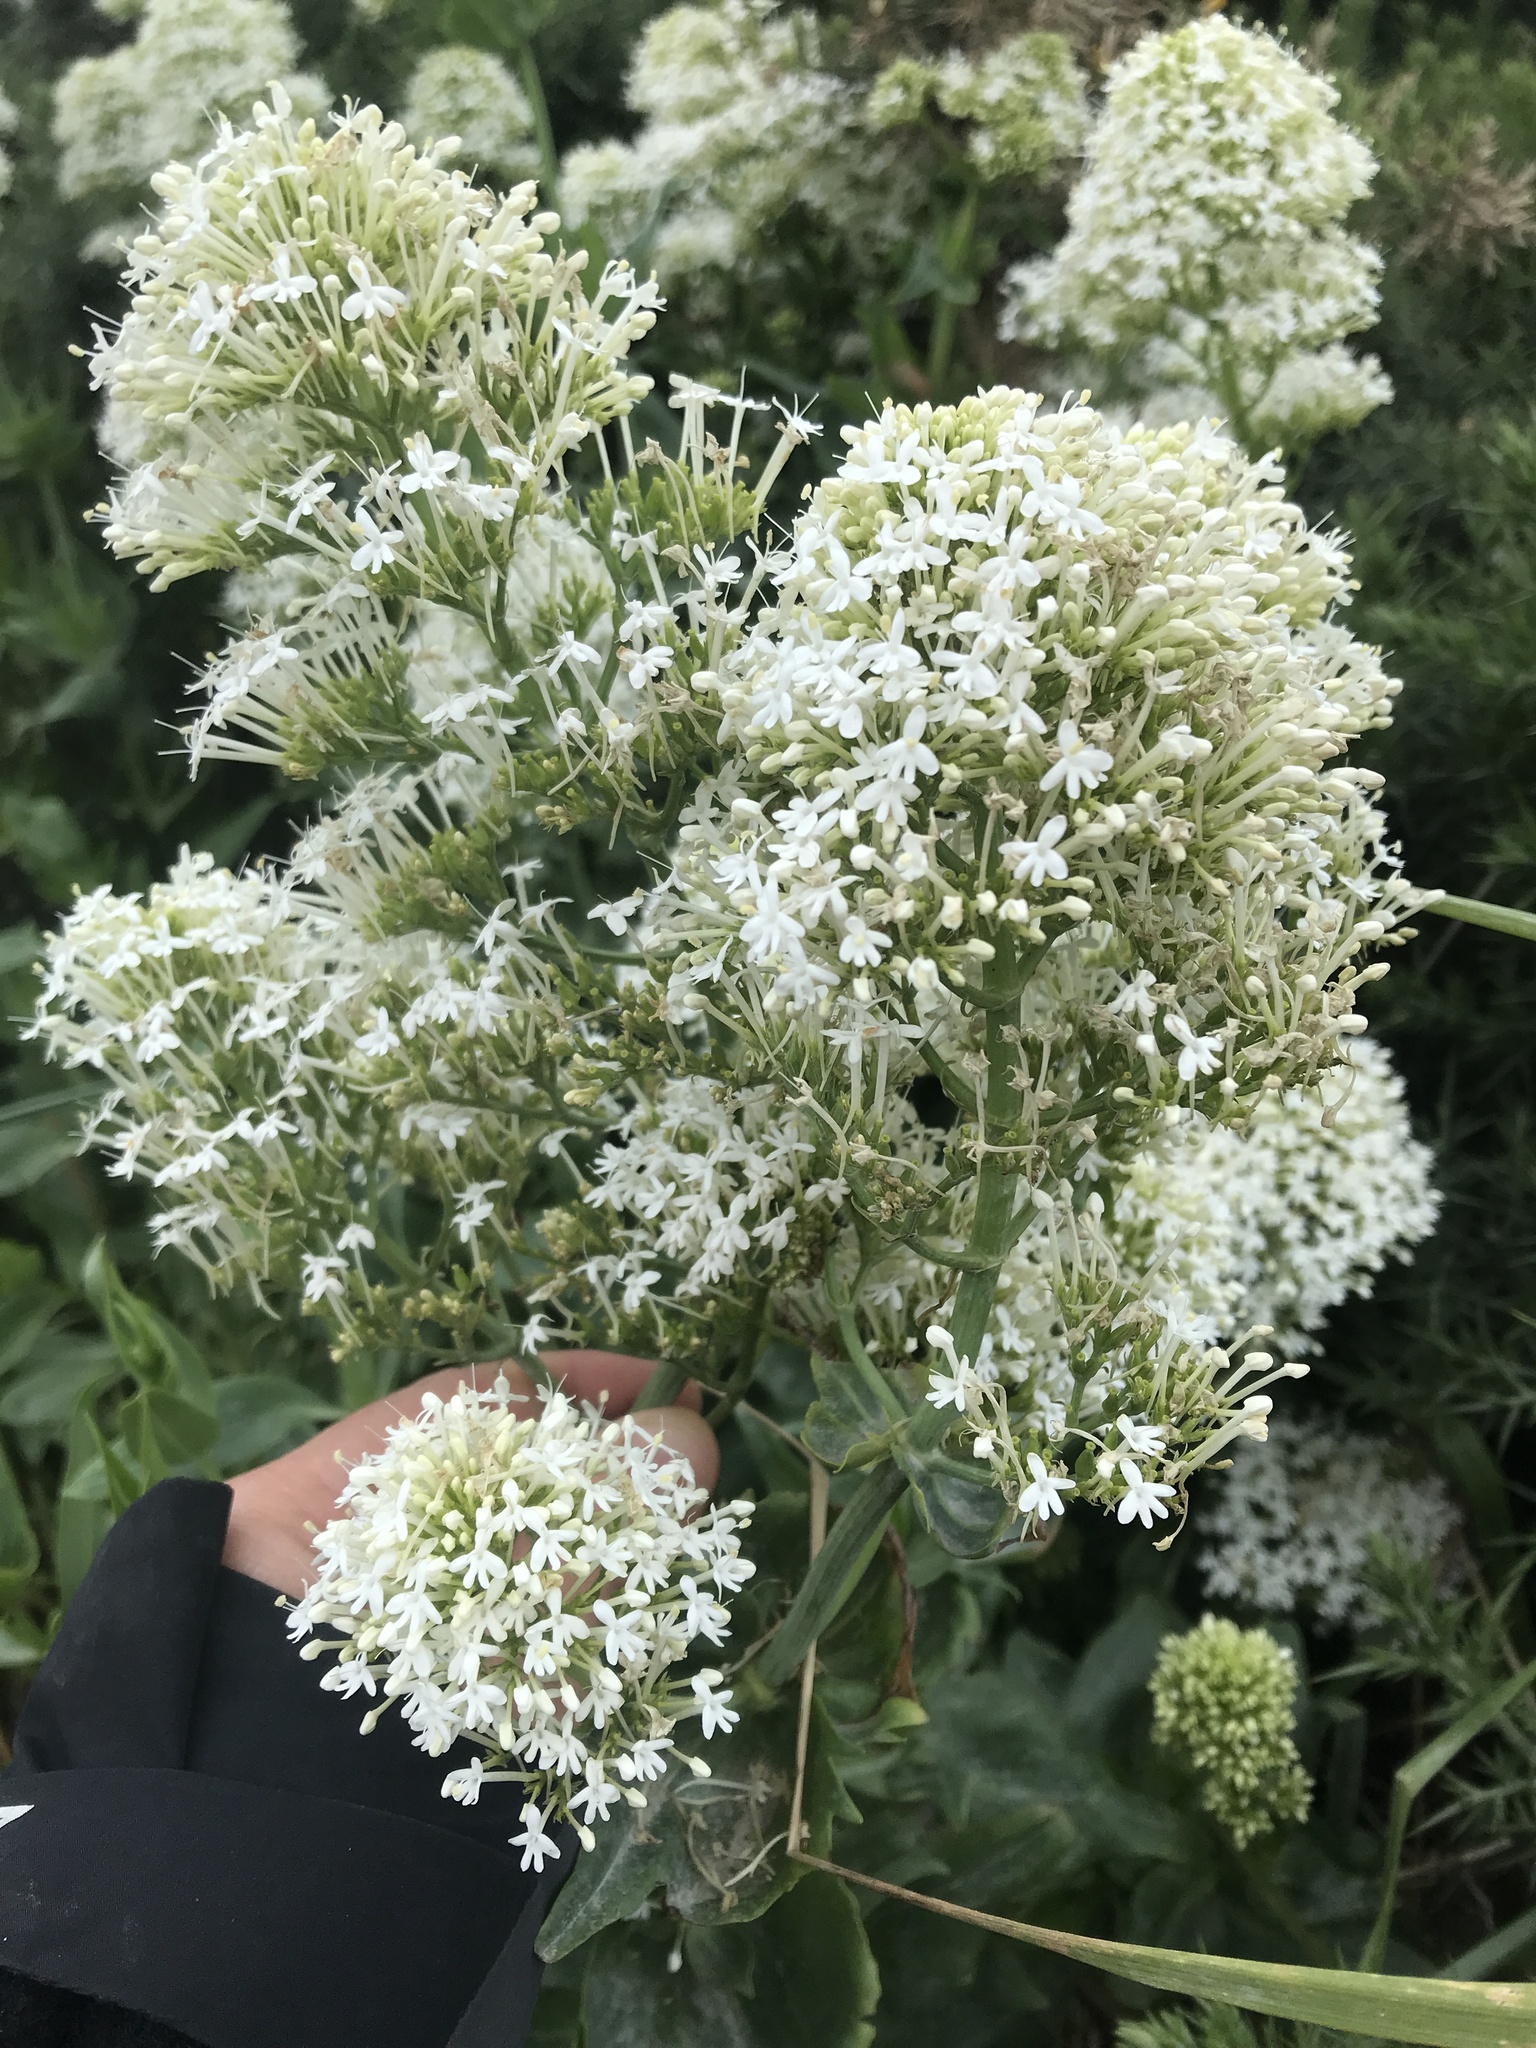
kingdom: Plantae
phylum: Tracheophyta
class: Magnoliopsida
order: Dipsacales
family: Caprifoliaceae
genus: Centranthus
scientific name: Centranthus ruber
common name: Red valerian
